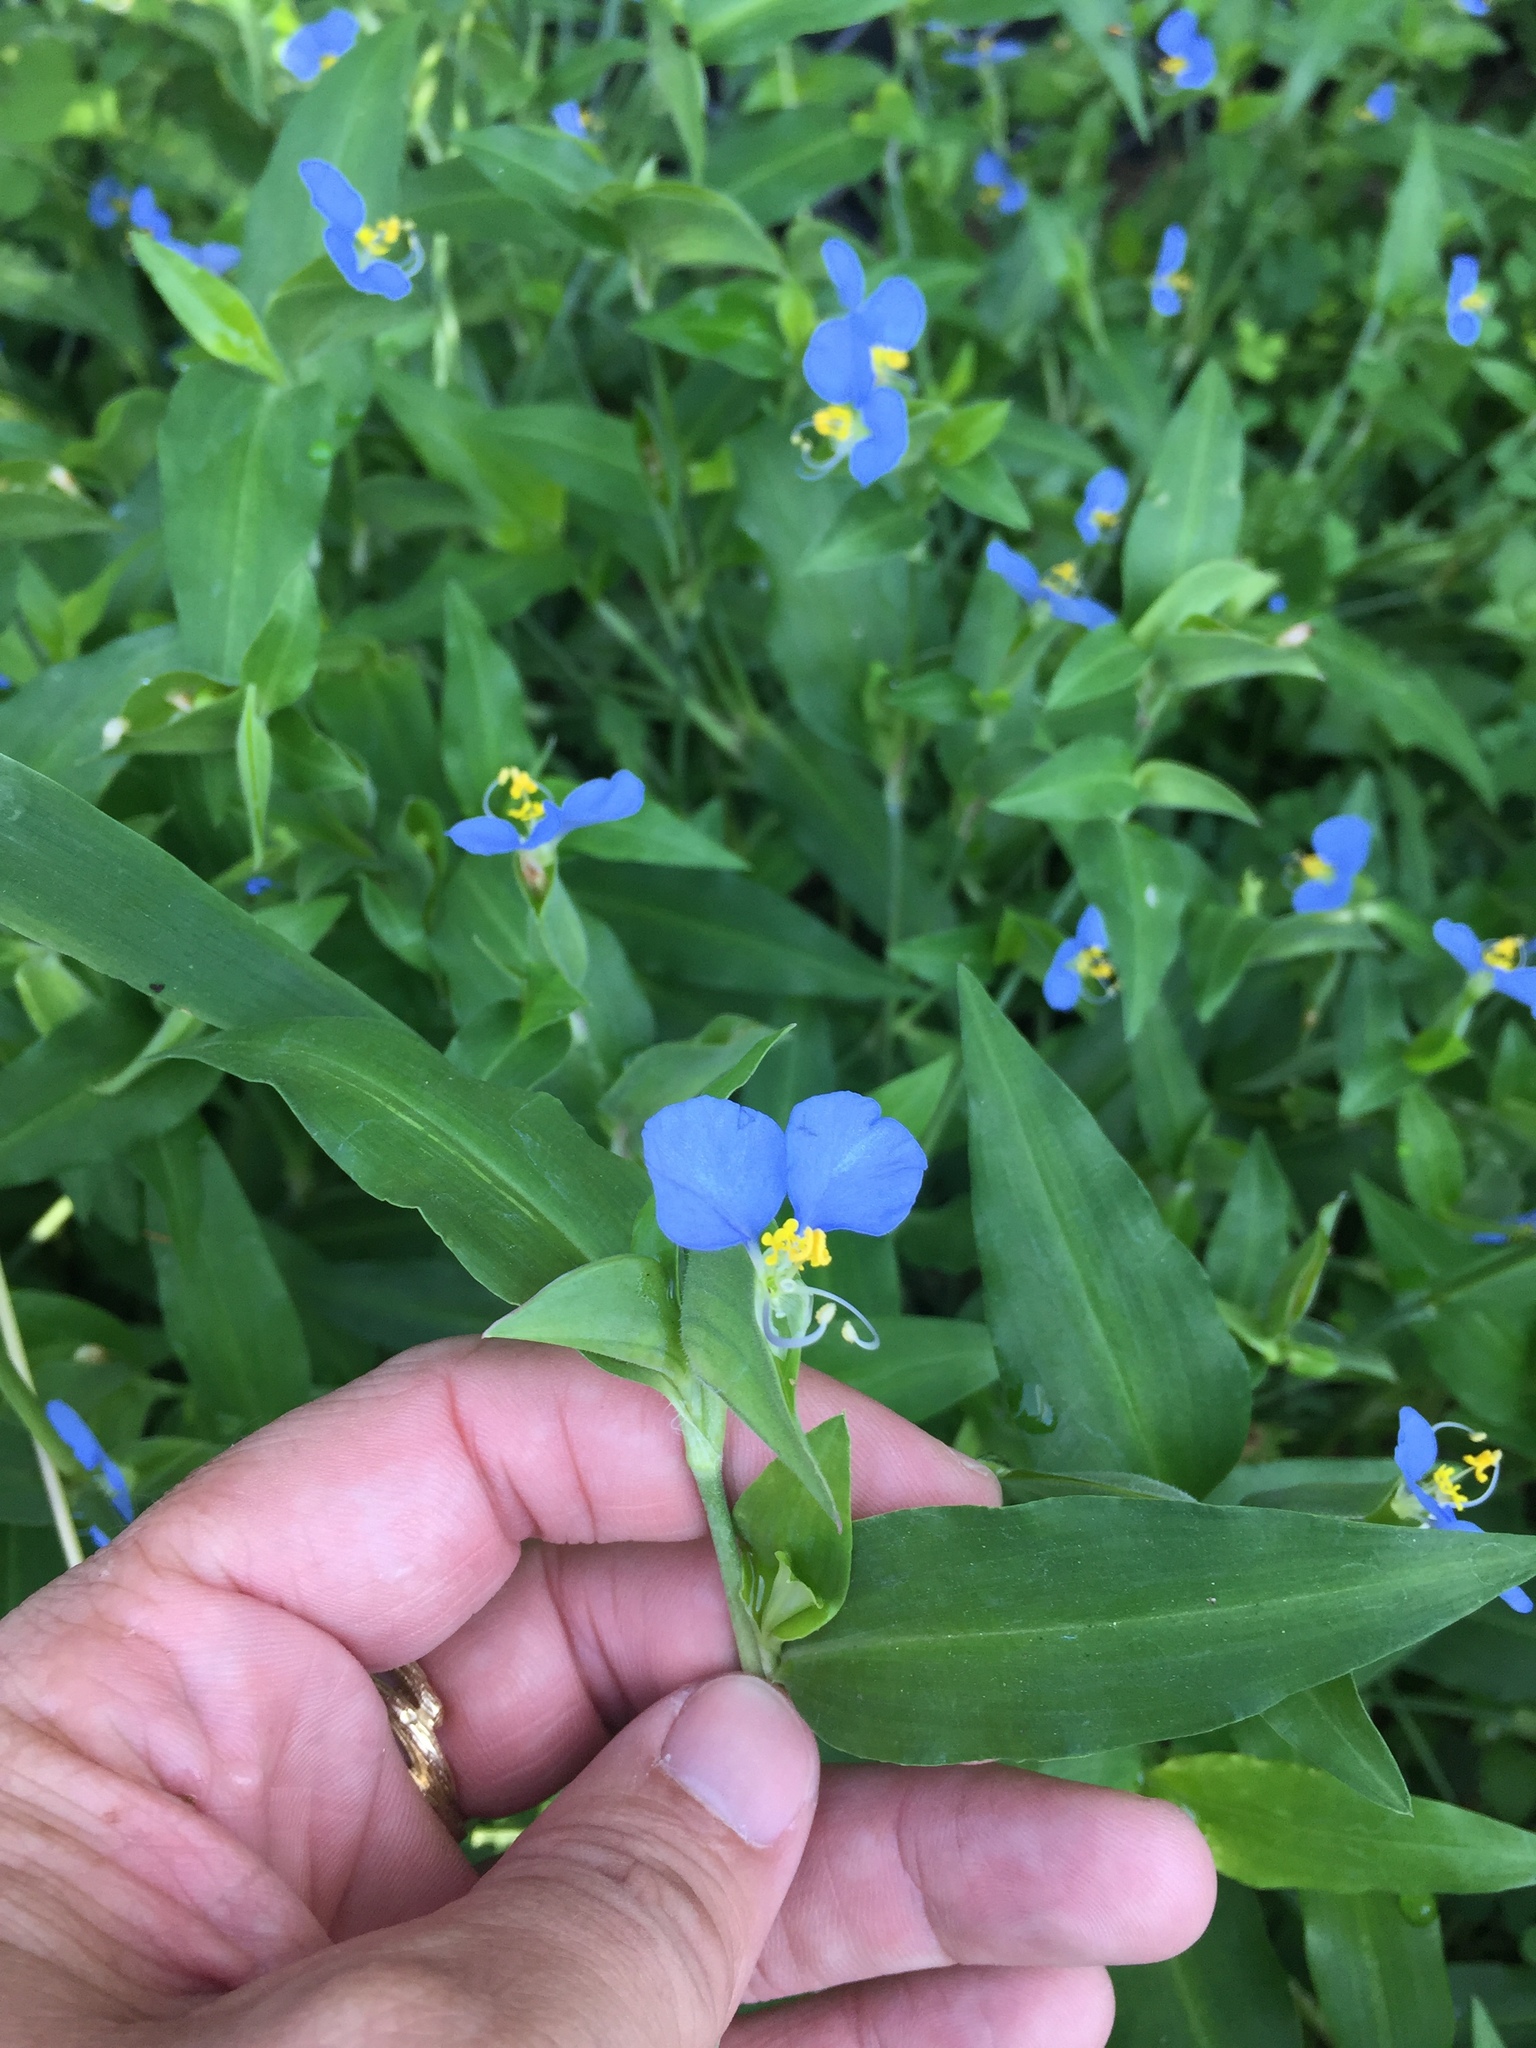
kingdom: Plantae
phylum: Tracheophyta
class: Liliopsida
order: Commelinales
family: Commelinaceae
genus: Commelina
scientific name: Commelina erecta
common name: Blousel blommetjie
